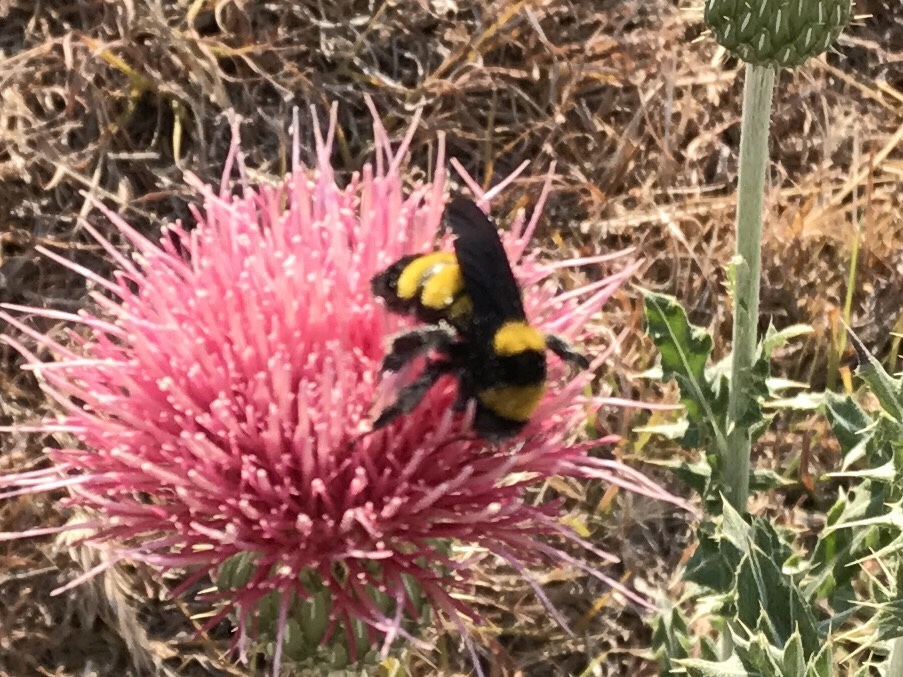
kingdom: Animalia
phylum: Arthropoda
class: Insecta
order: Hymenoptera
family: Apidae
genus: Bombus
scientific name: Bombus sonorus
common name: Sonoran bumble bee
